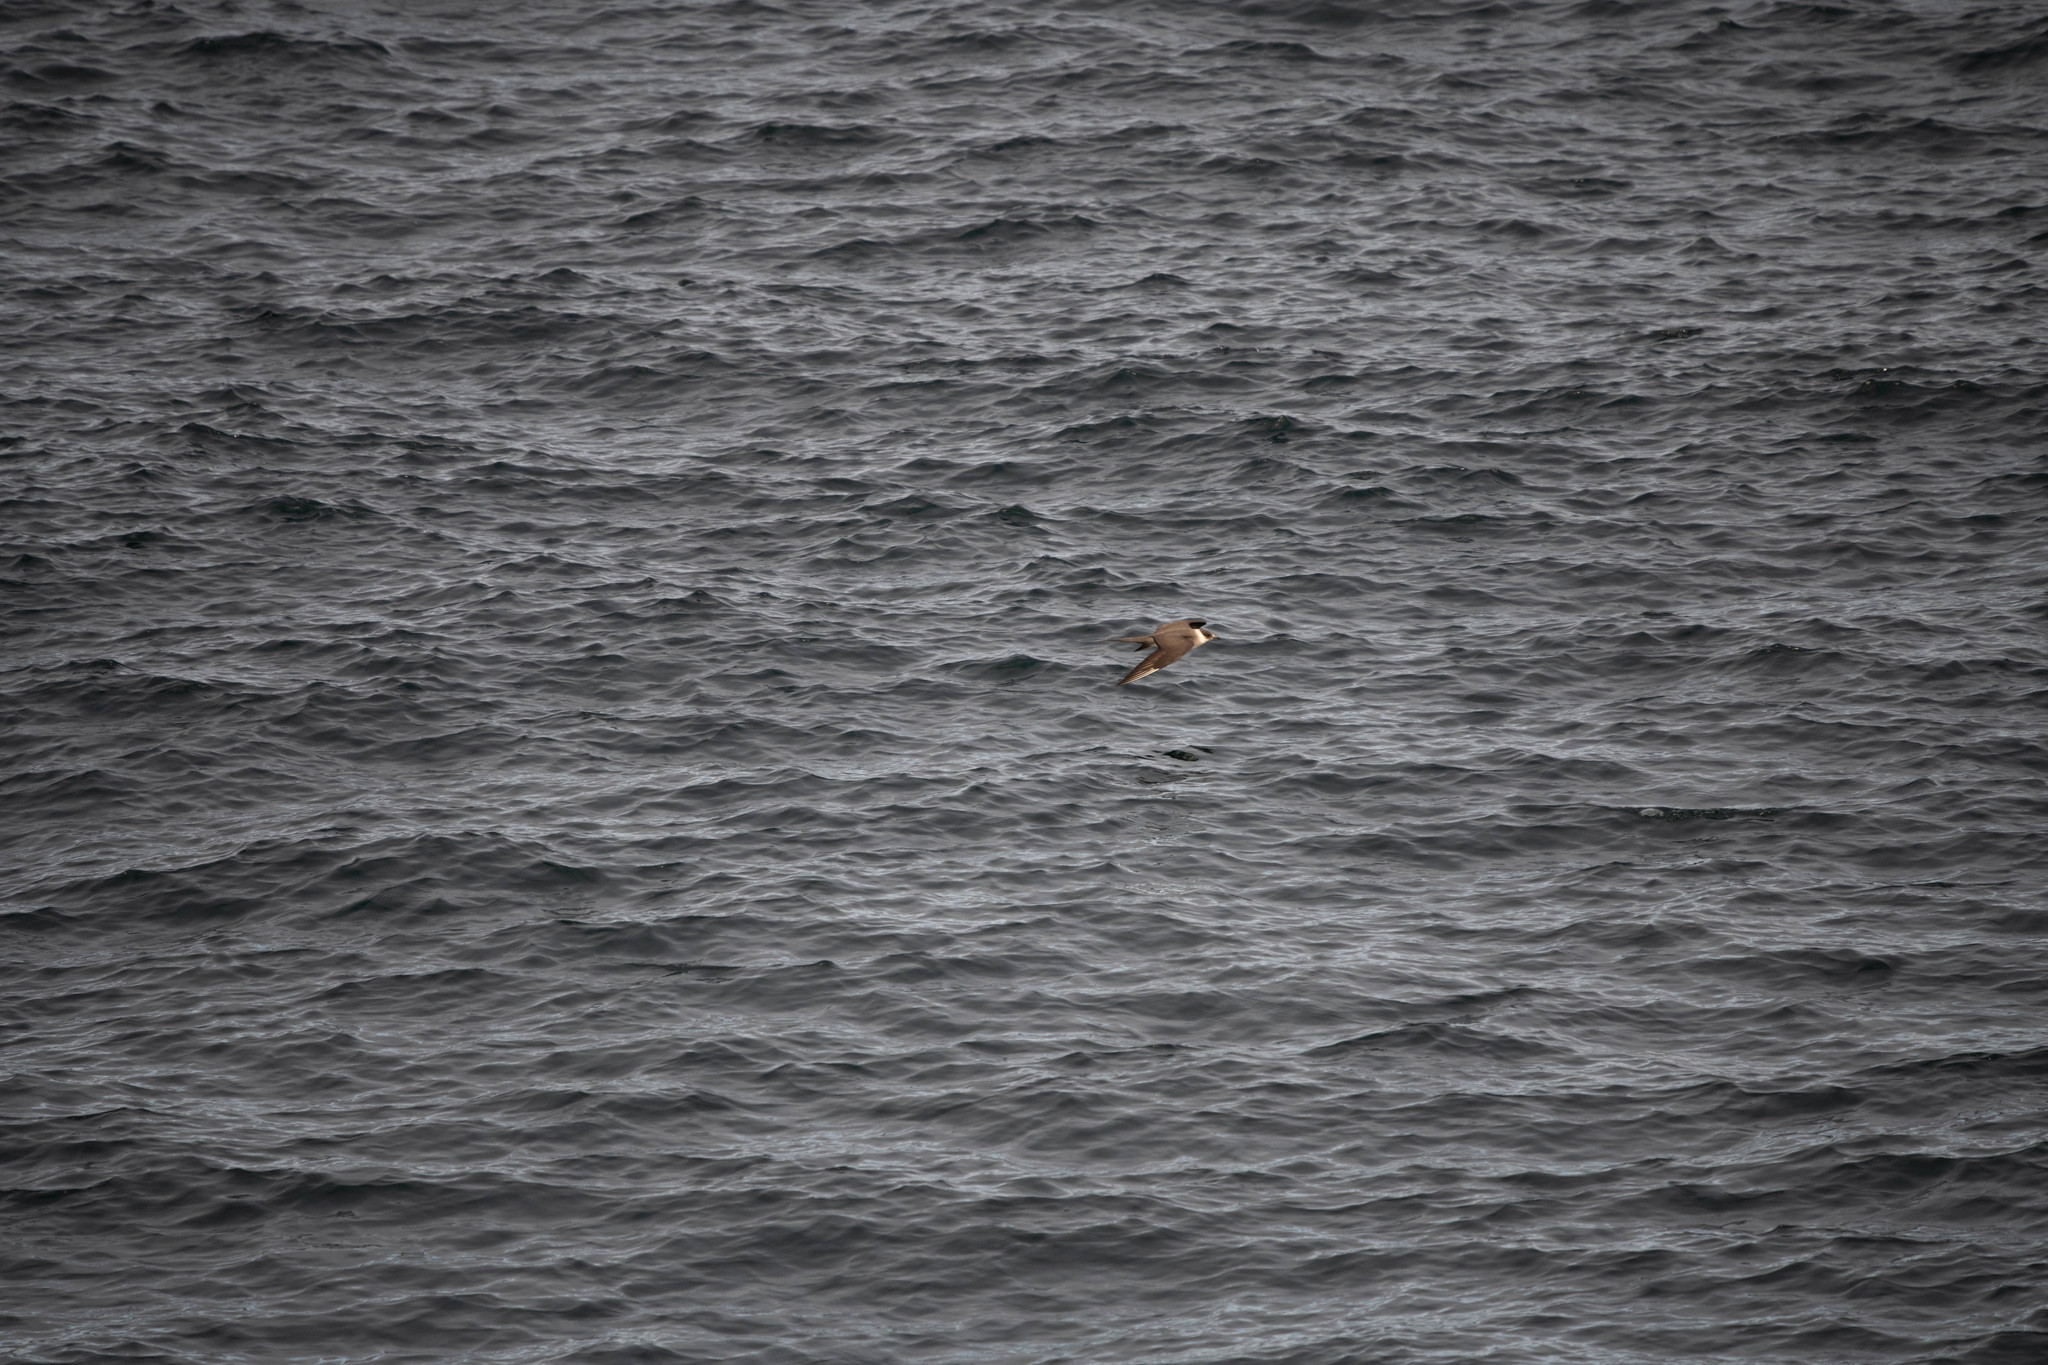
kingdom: Animalia
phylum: Chordata
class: Aves
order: Charadriiformes
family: Stercorariidae
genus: Stercorarius
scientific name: Stercorarius parasiticus
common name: Parasitic jaeger
